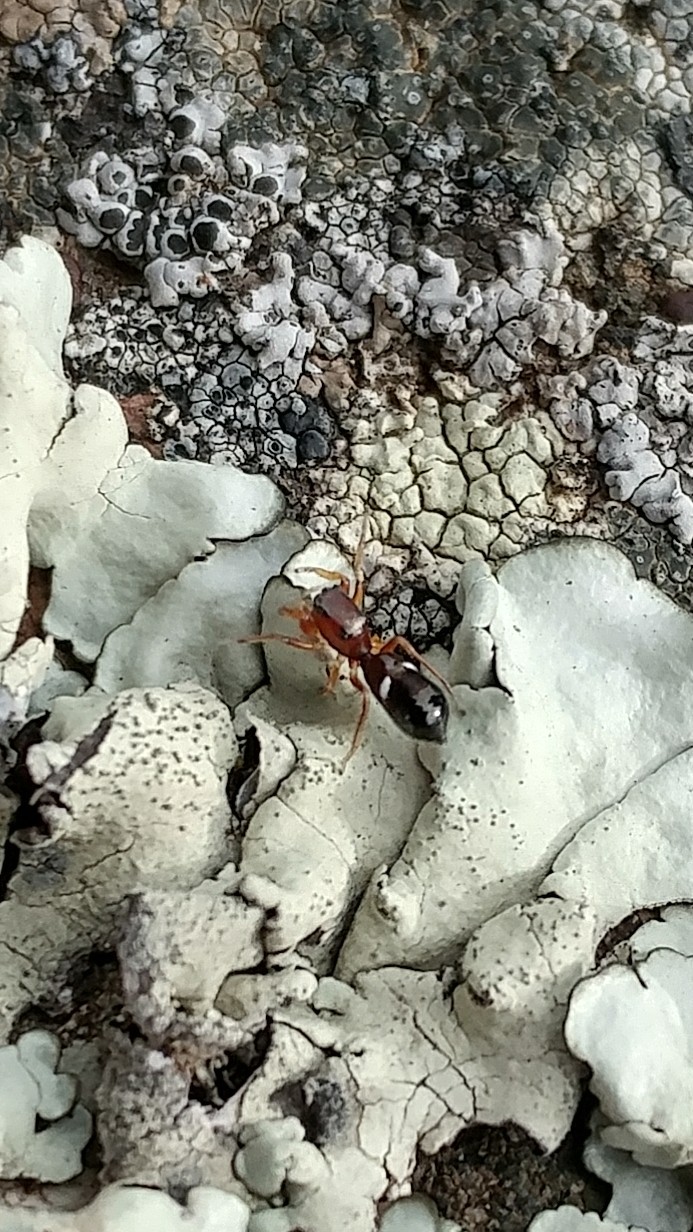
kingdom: Animalia
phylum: Arthropoda
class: Arachnida
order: Araneae
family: Salticidae
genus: Synageles
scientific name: Synageles
